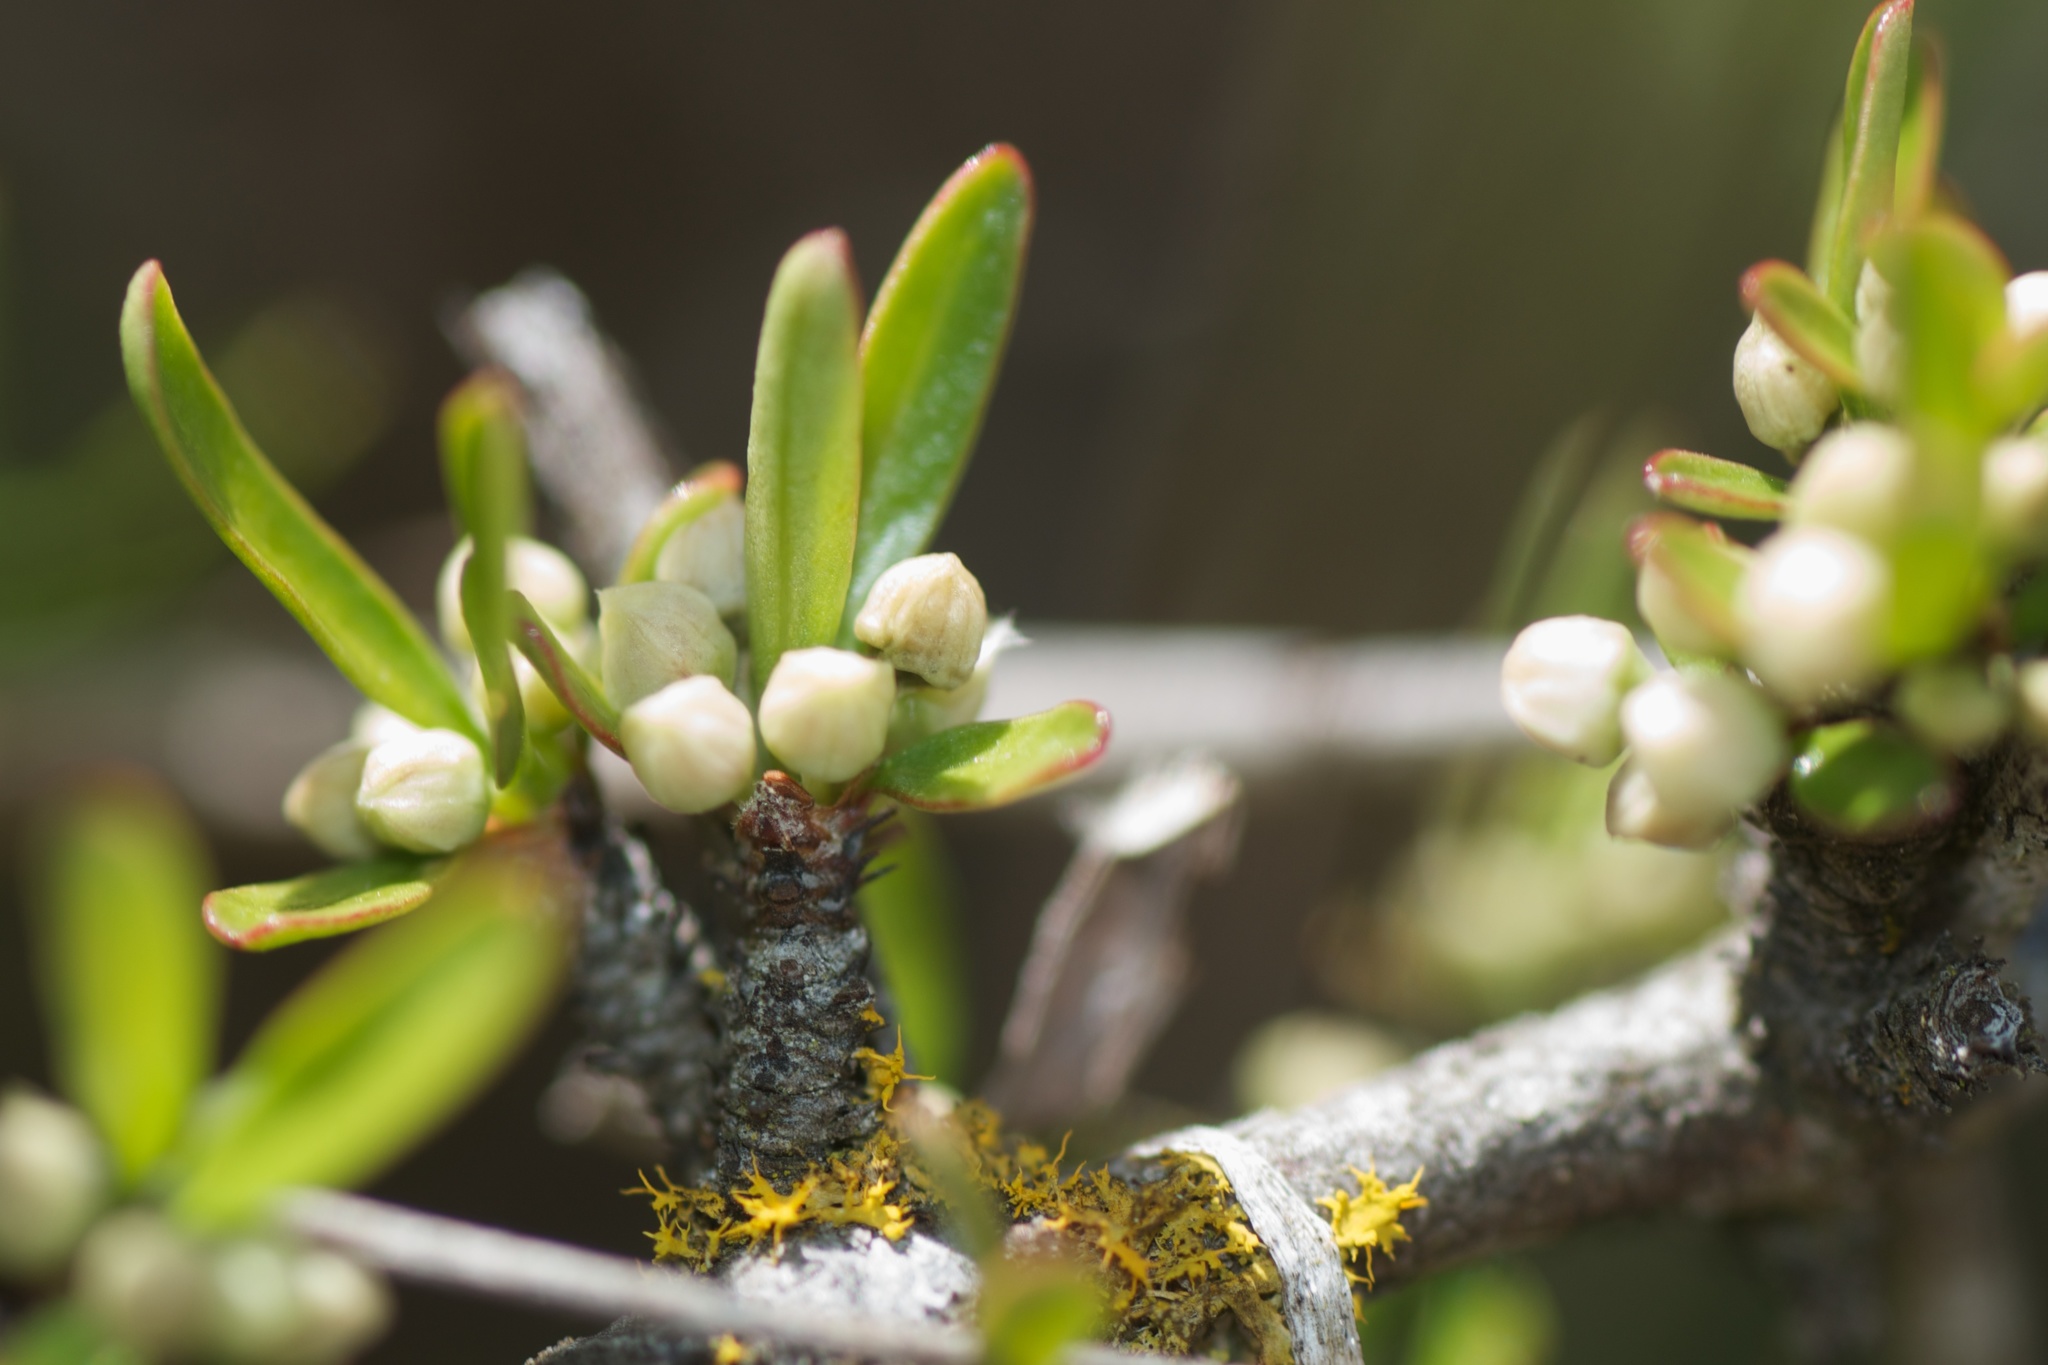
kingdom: Plantae
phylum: Tracheophyta
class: Magnoliopsida
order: Rosales
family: Rhamnaceae
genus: Discaria
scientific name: Discaria toumatou
